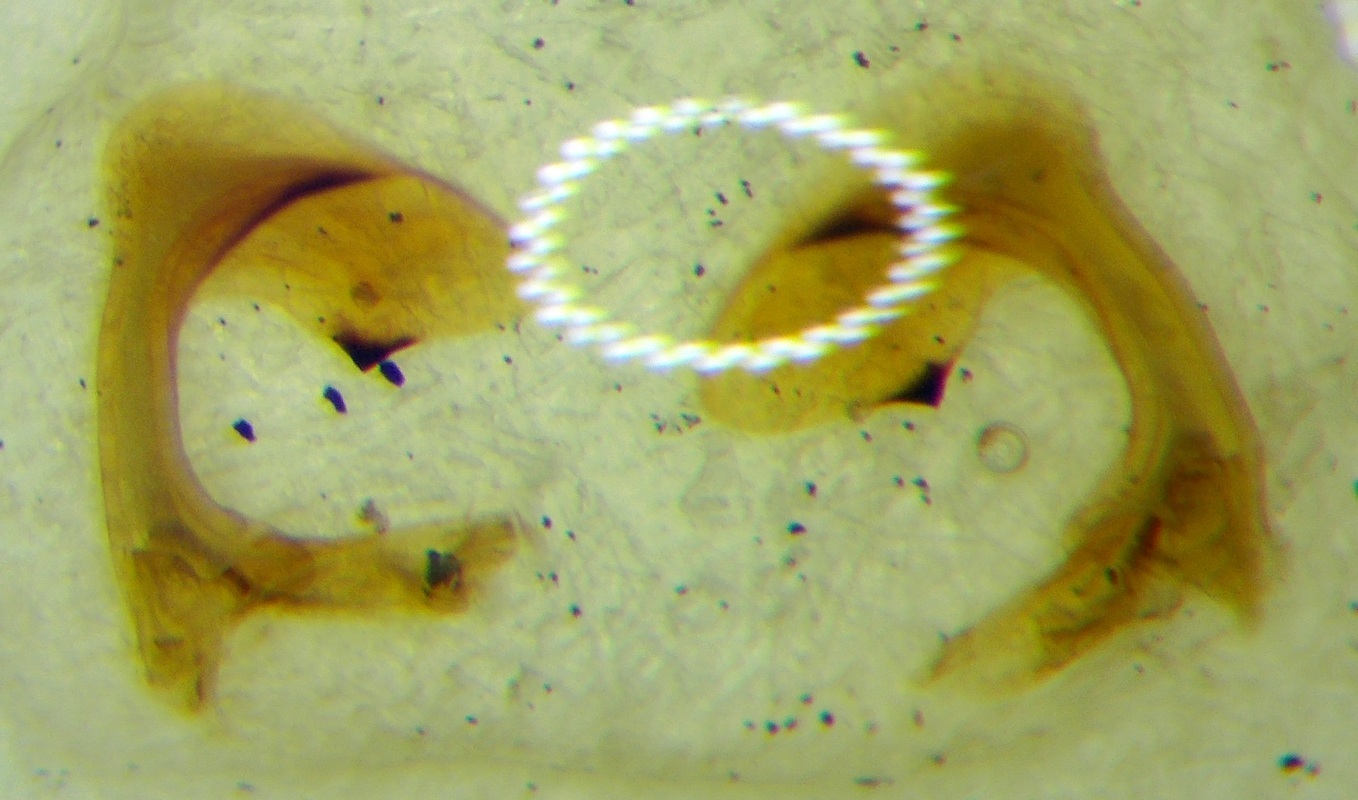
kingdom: Animalia
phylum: Arthropoda
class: Insecta
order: Hemiptera
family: Pentatomidae
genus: Carpocoris
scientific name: Carpocoris purpureipennis
